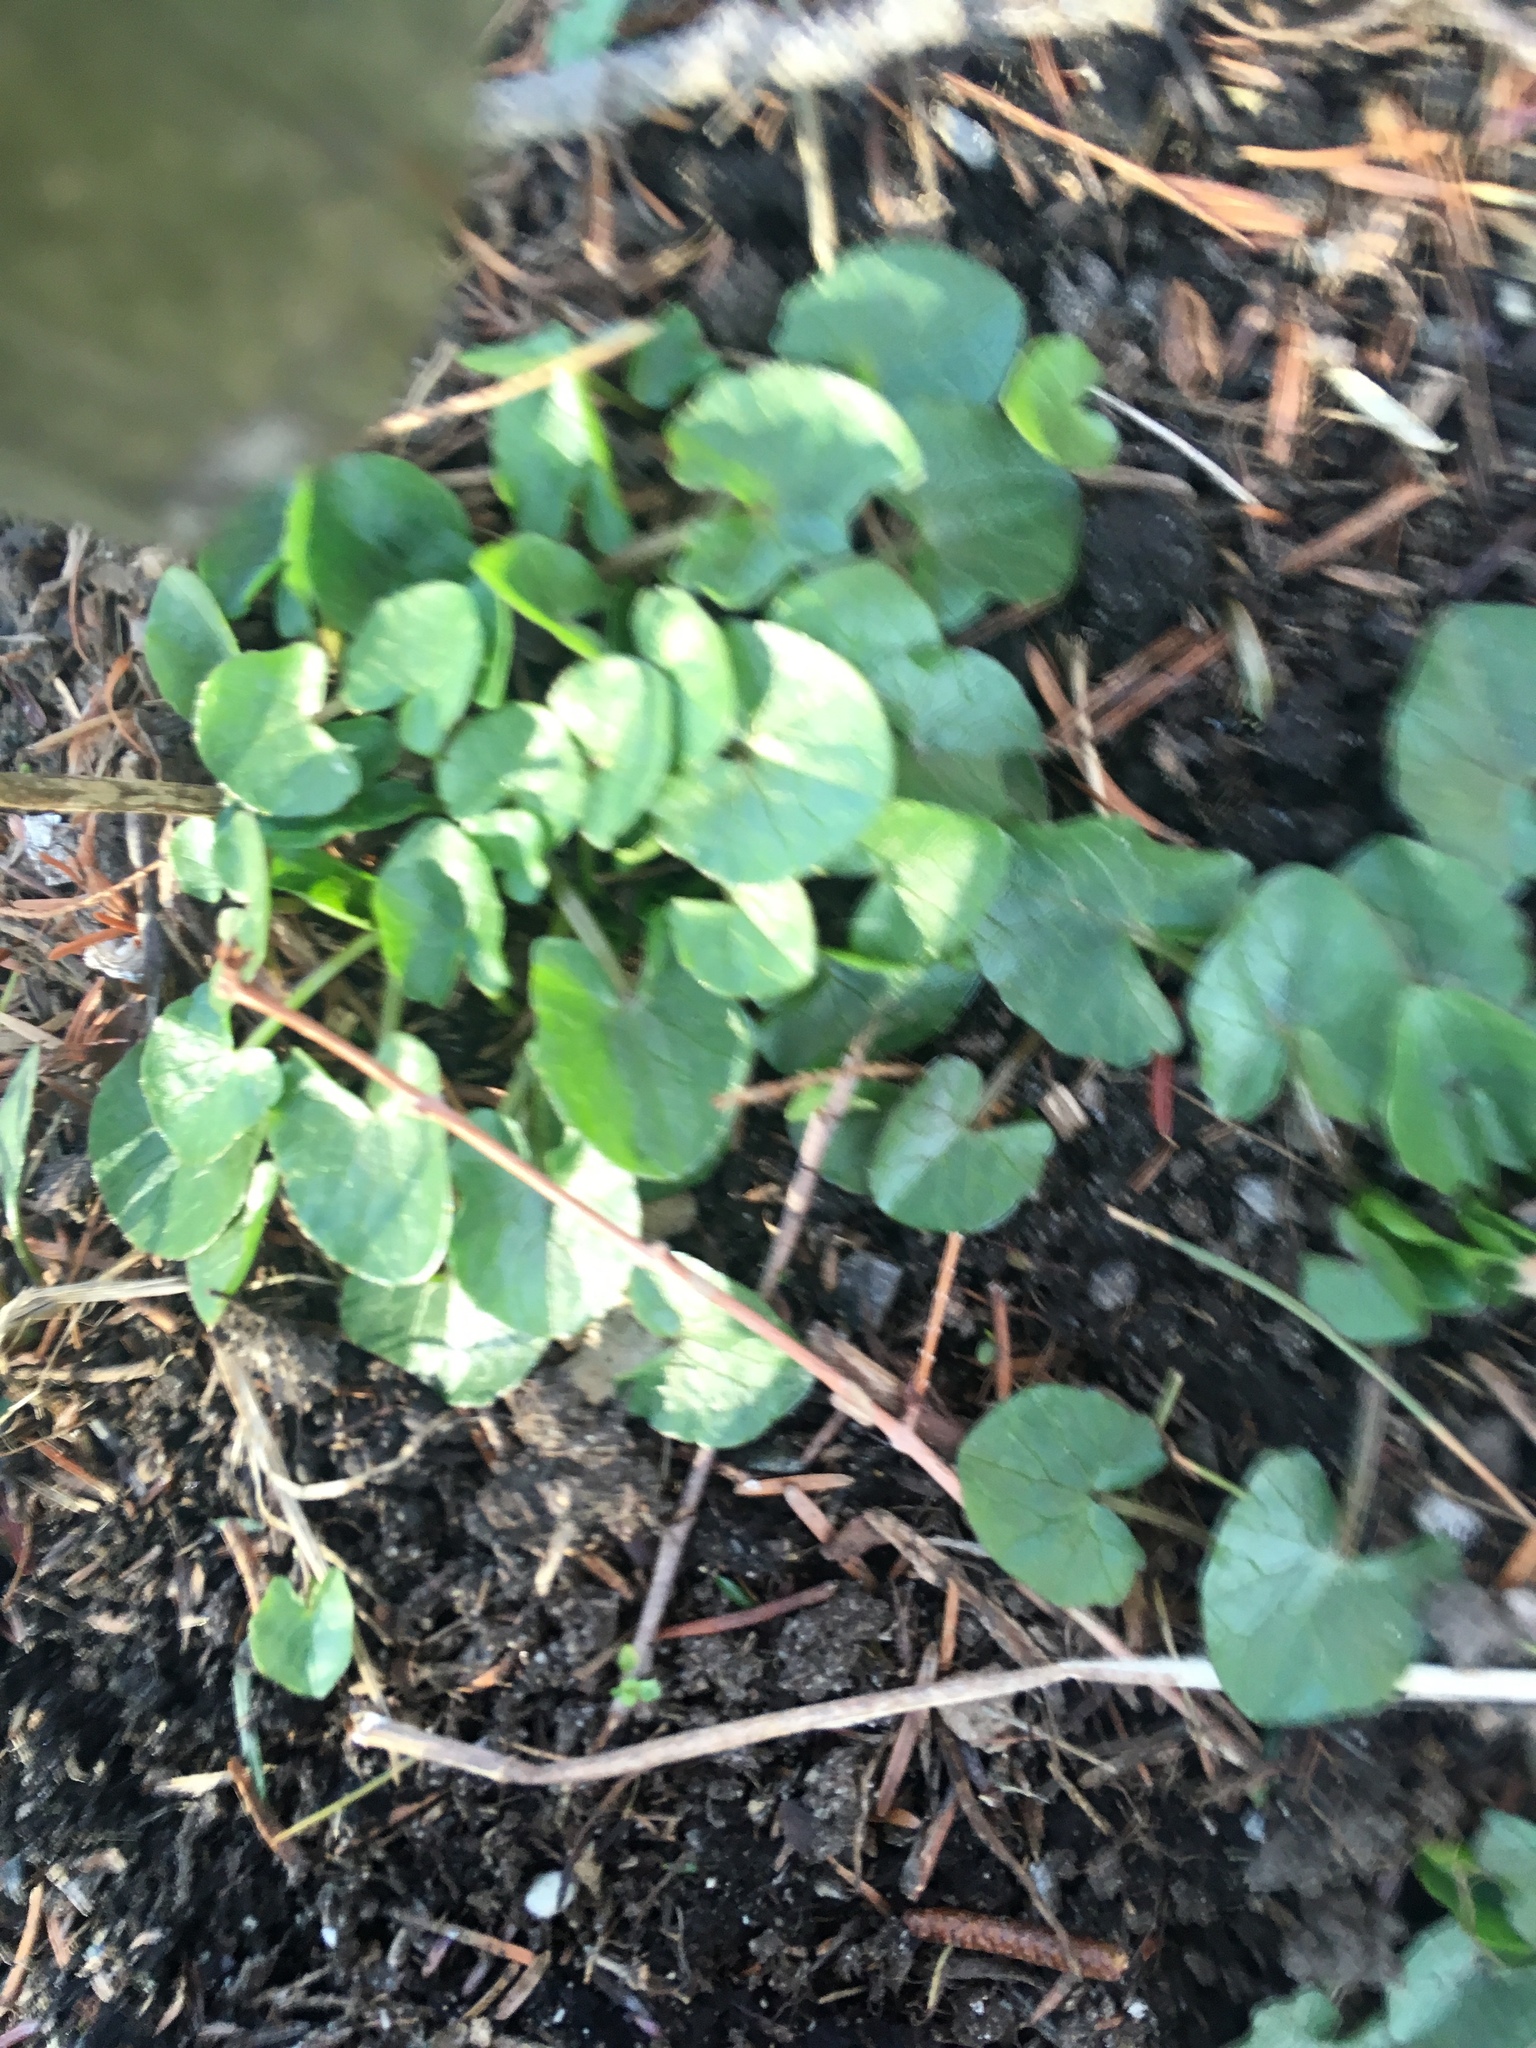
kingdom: Plantae
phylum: Tracheophyta
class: Magnoliopsida
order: Ranunculales
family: Ranunculaceae
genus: Ficaria
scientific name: Ficaria verna
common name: Lesser celandine
